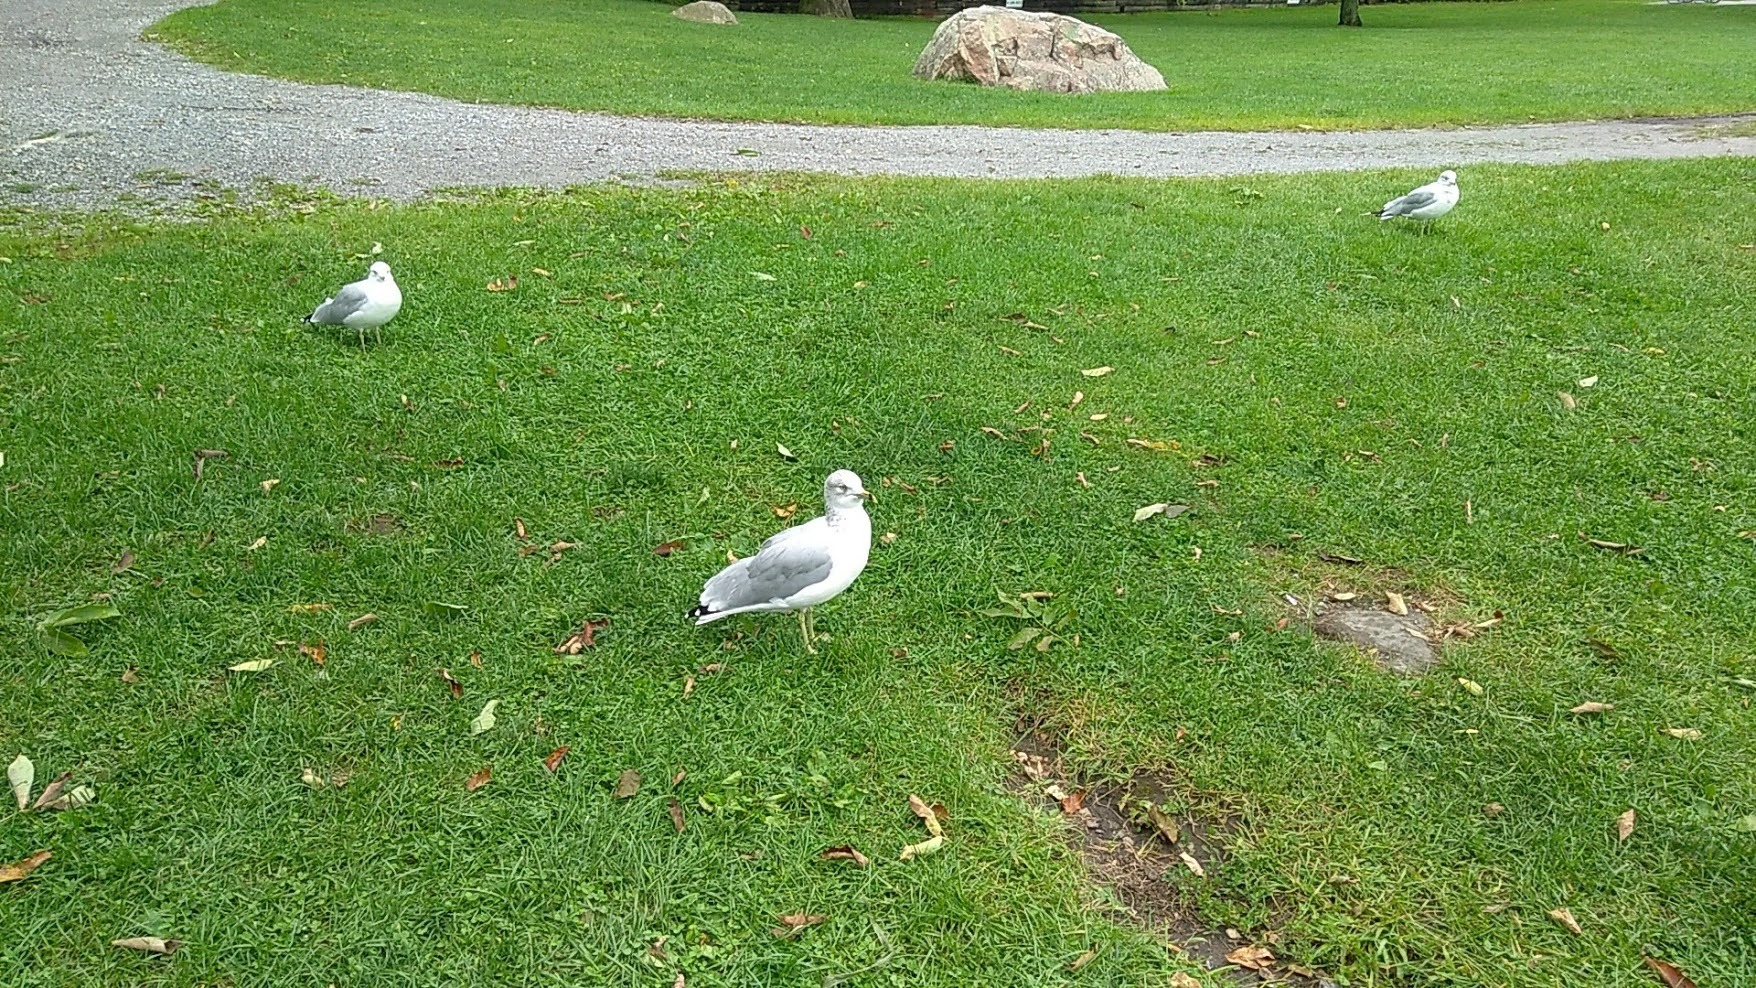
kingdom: Animalia
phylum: Chordata
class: Aves
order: Charadriiformes
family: Laridae
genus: Larus
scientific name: Larus delawarensis
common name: Ring-billed gull
